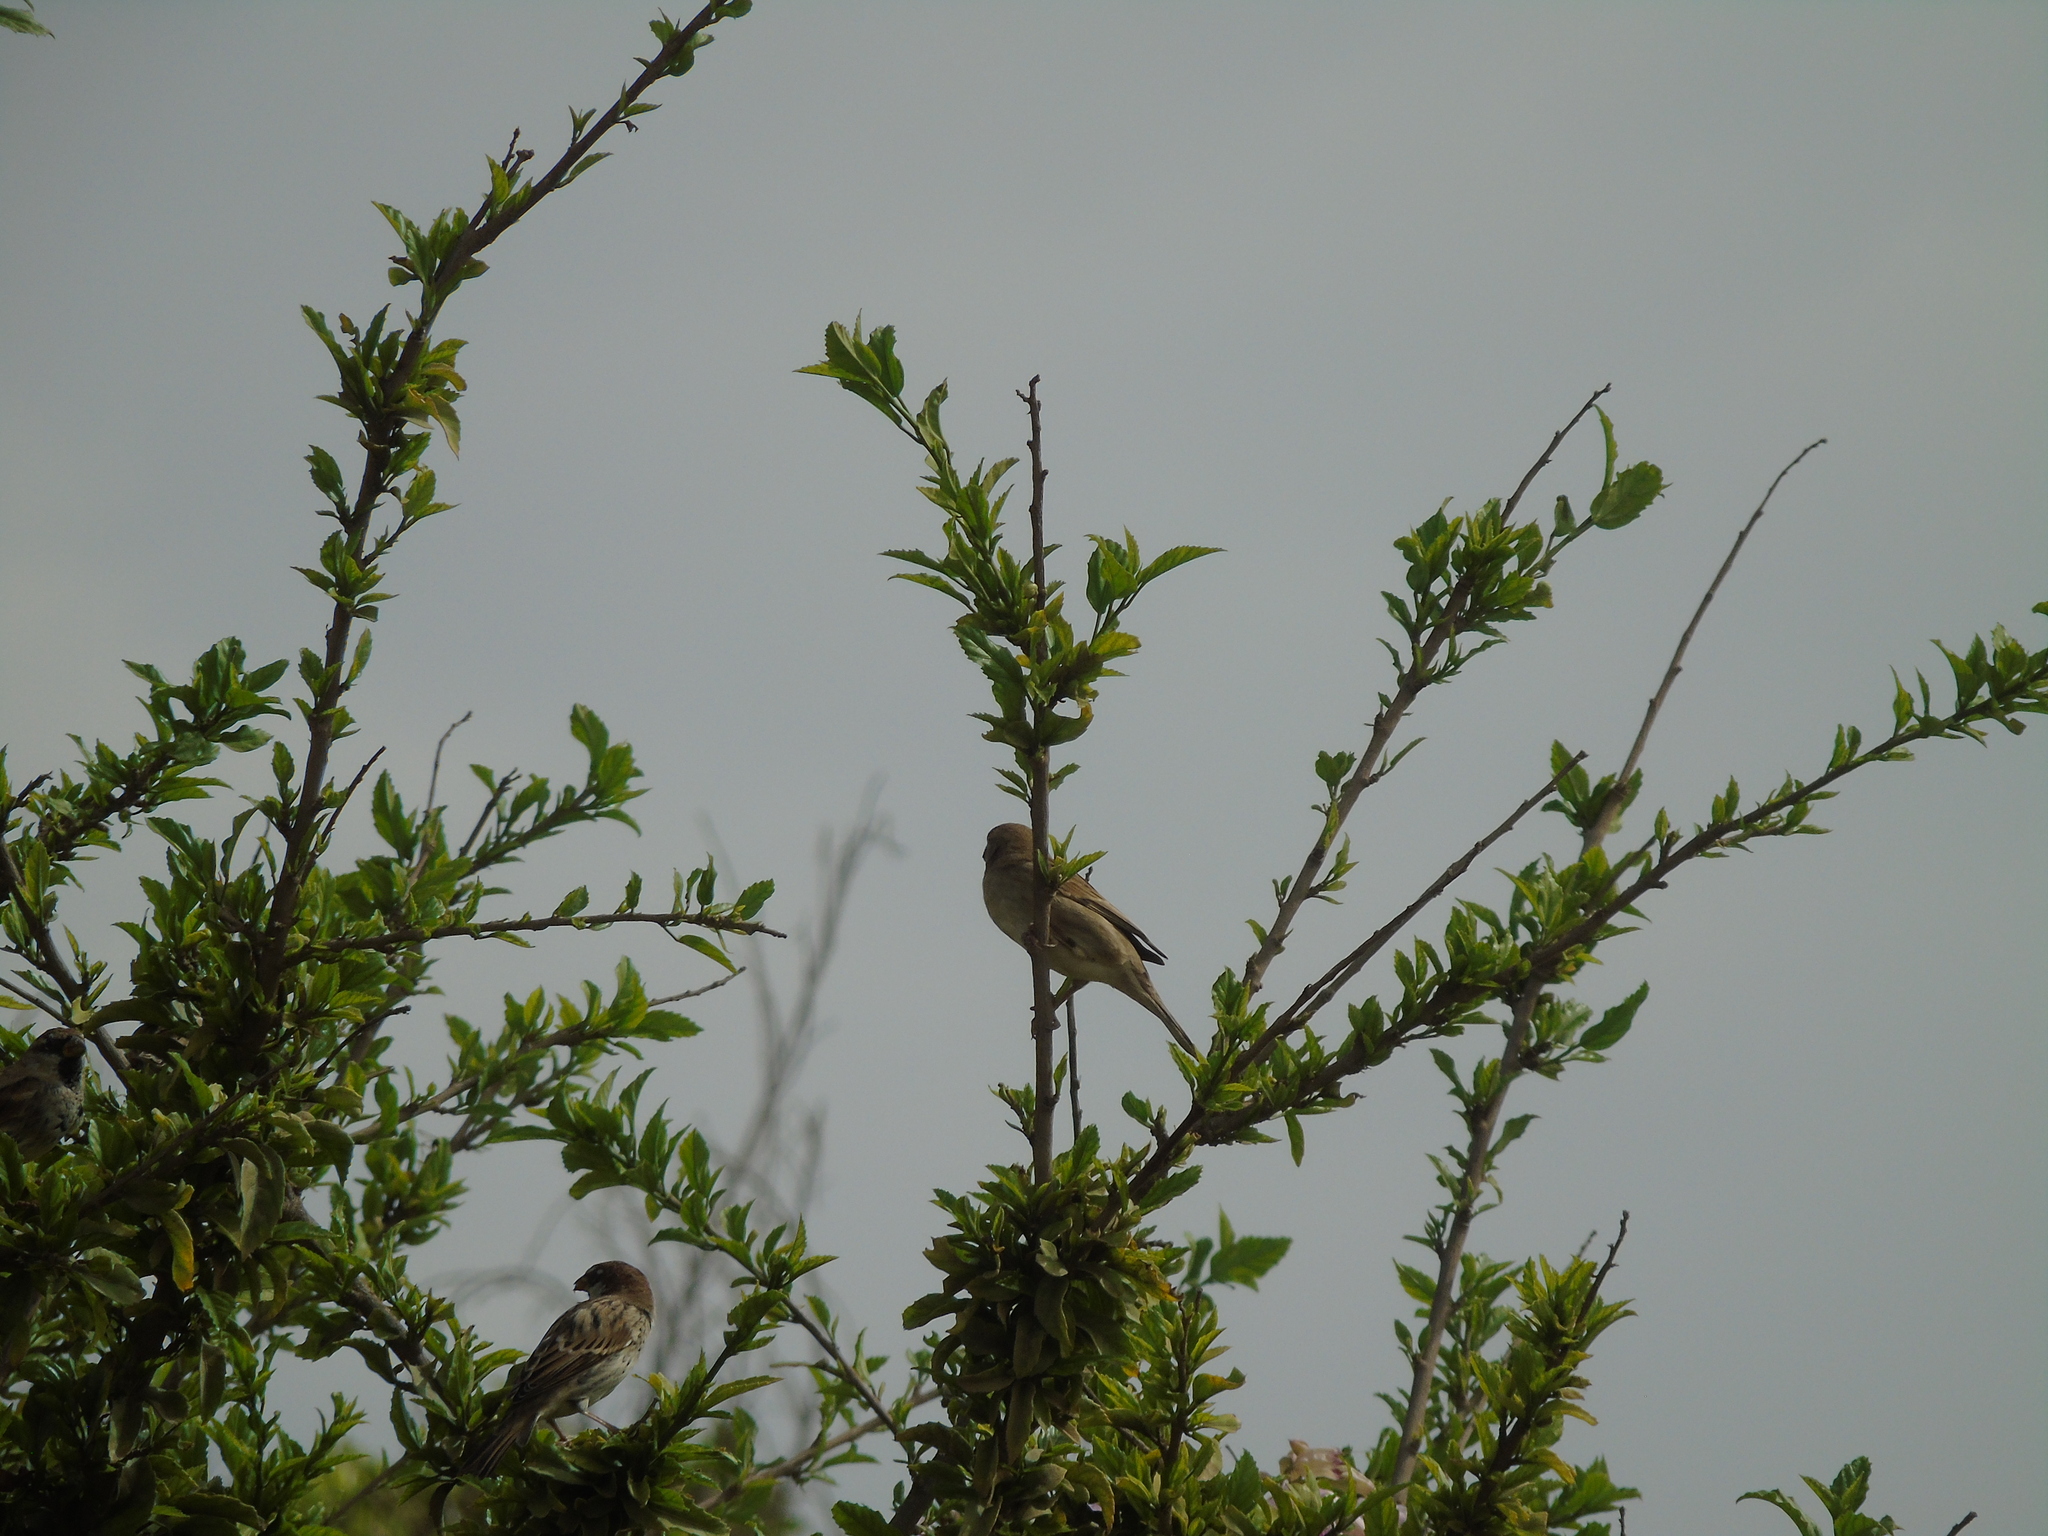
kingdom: Animalia
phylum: Chordata
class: Aves
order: Passeriformes
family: Passeridae
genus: Passer
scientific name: Passer hispaniolensis
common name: Spanish sparrow
